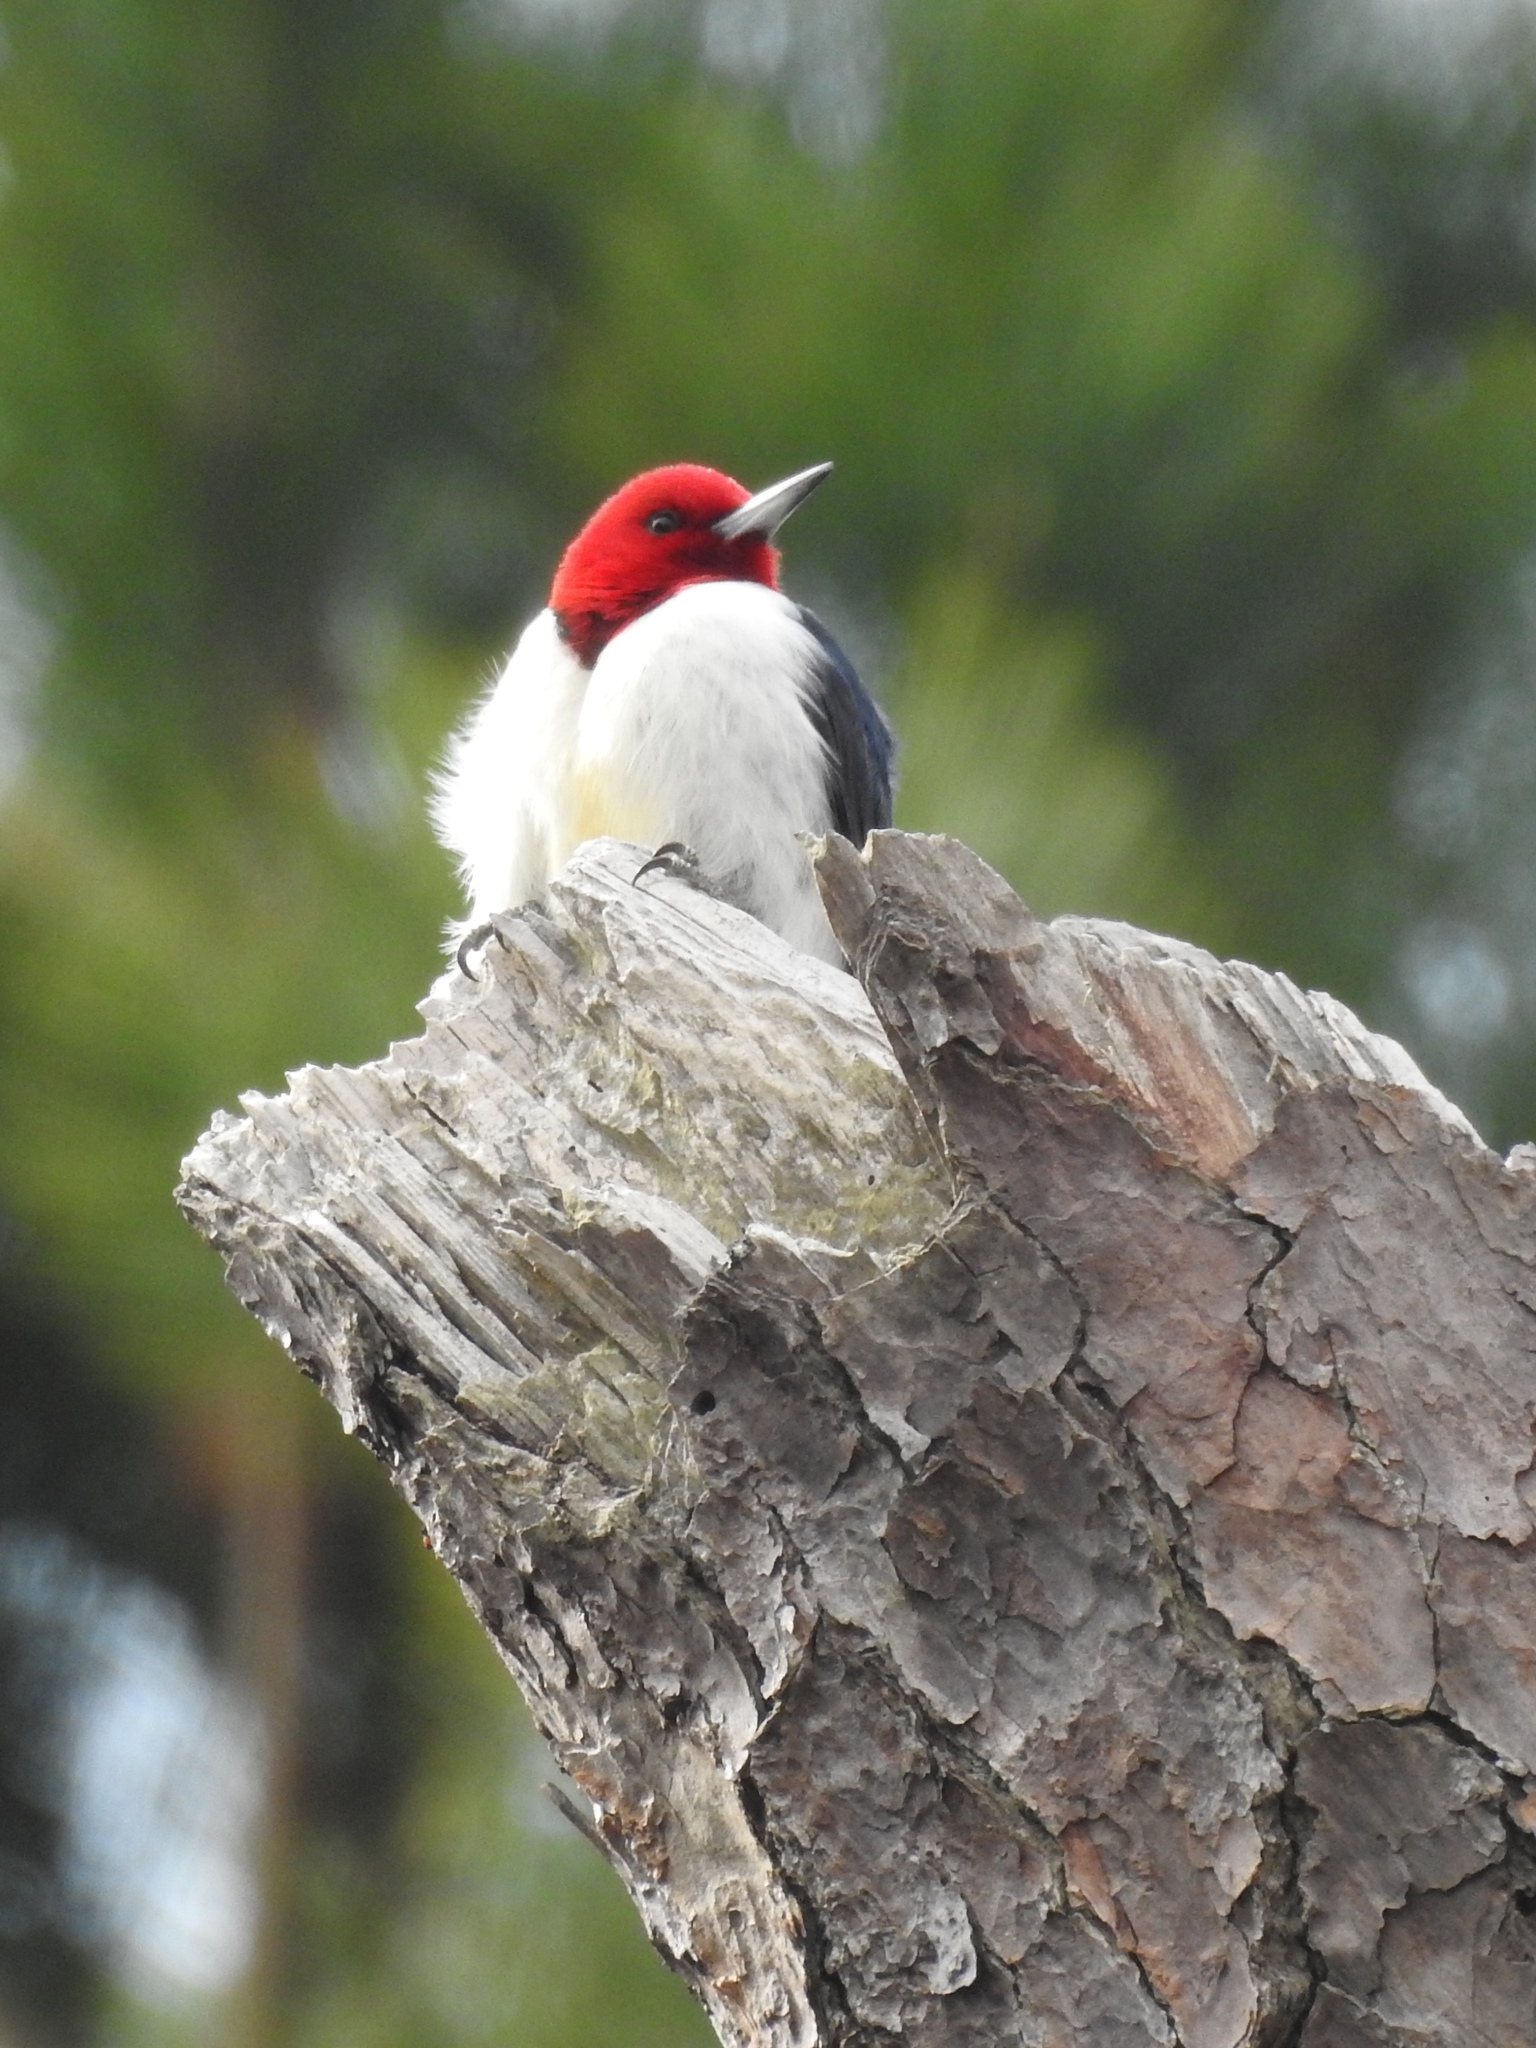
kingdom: Animalia
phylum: Chordata
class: Aves
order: Piciformes
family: Picidae
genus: Melanerpes
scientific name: Melanerpes erythrocephalus
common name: Red-headed woodpecker
